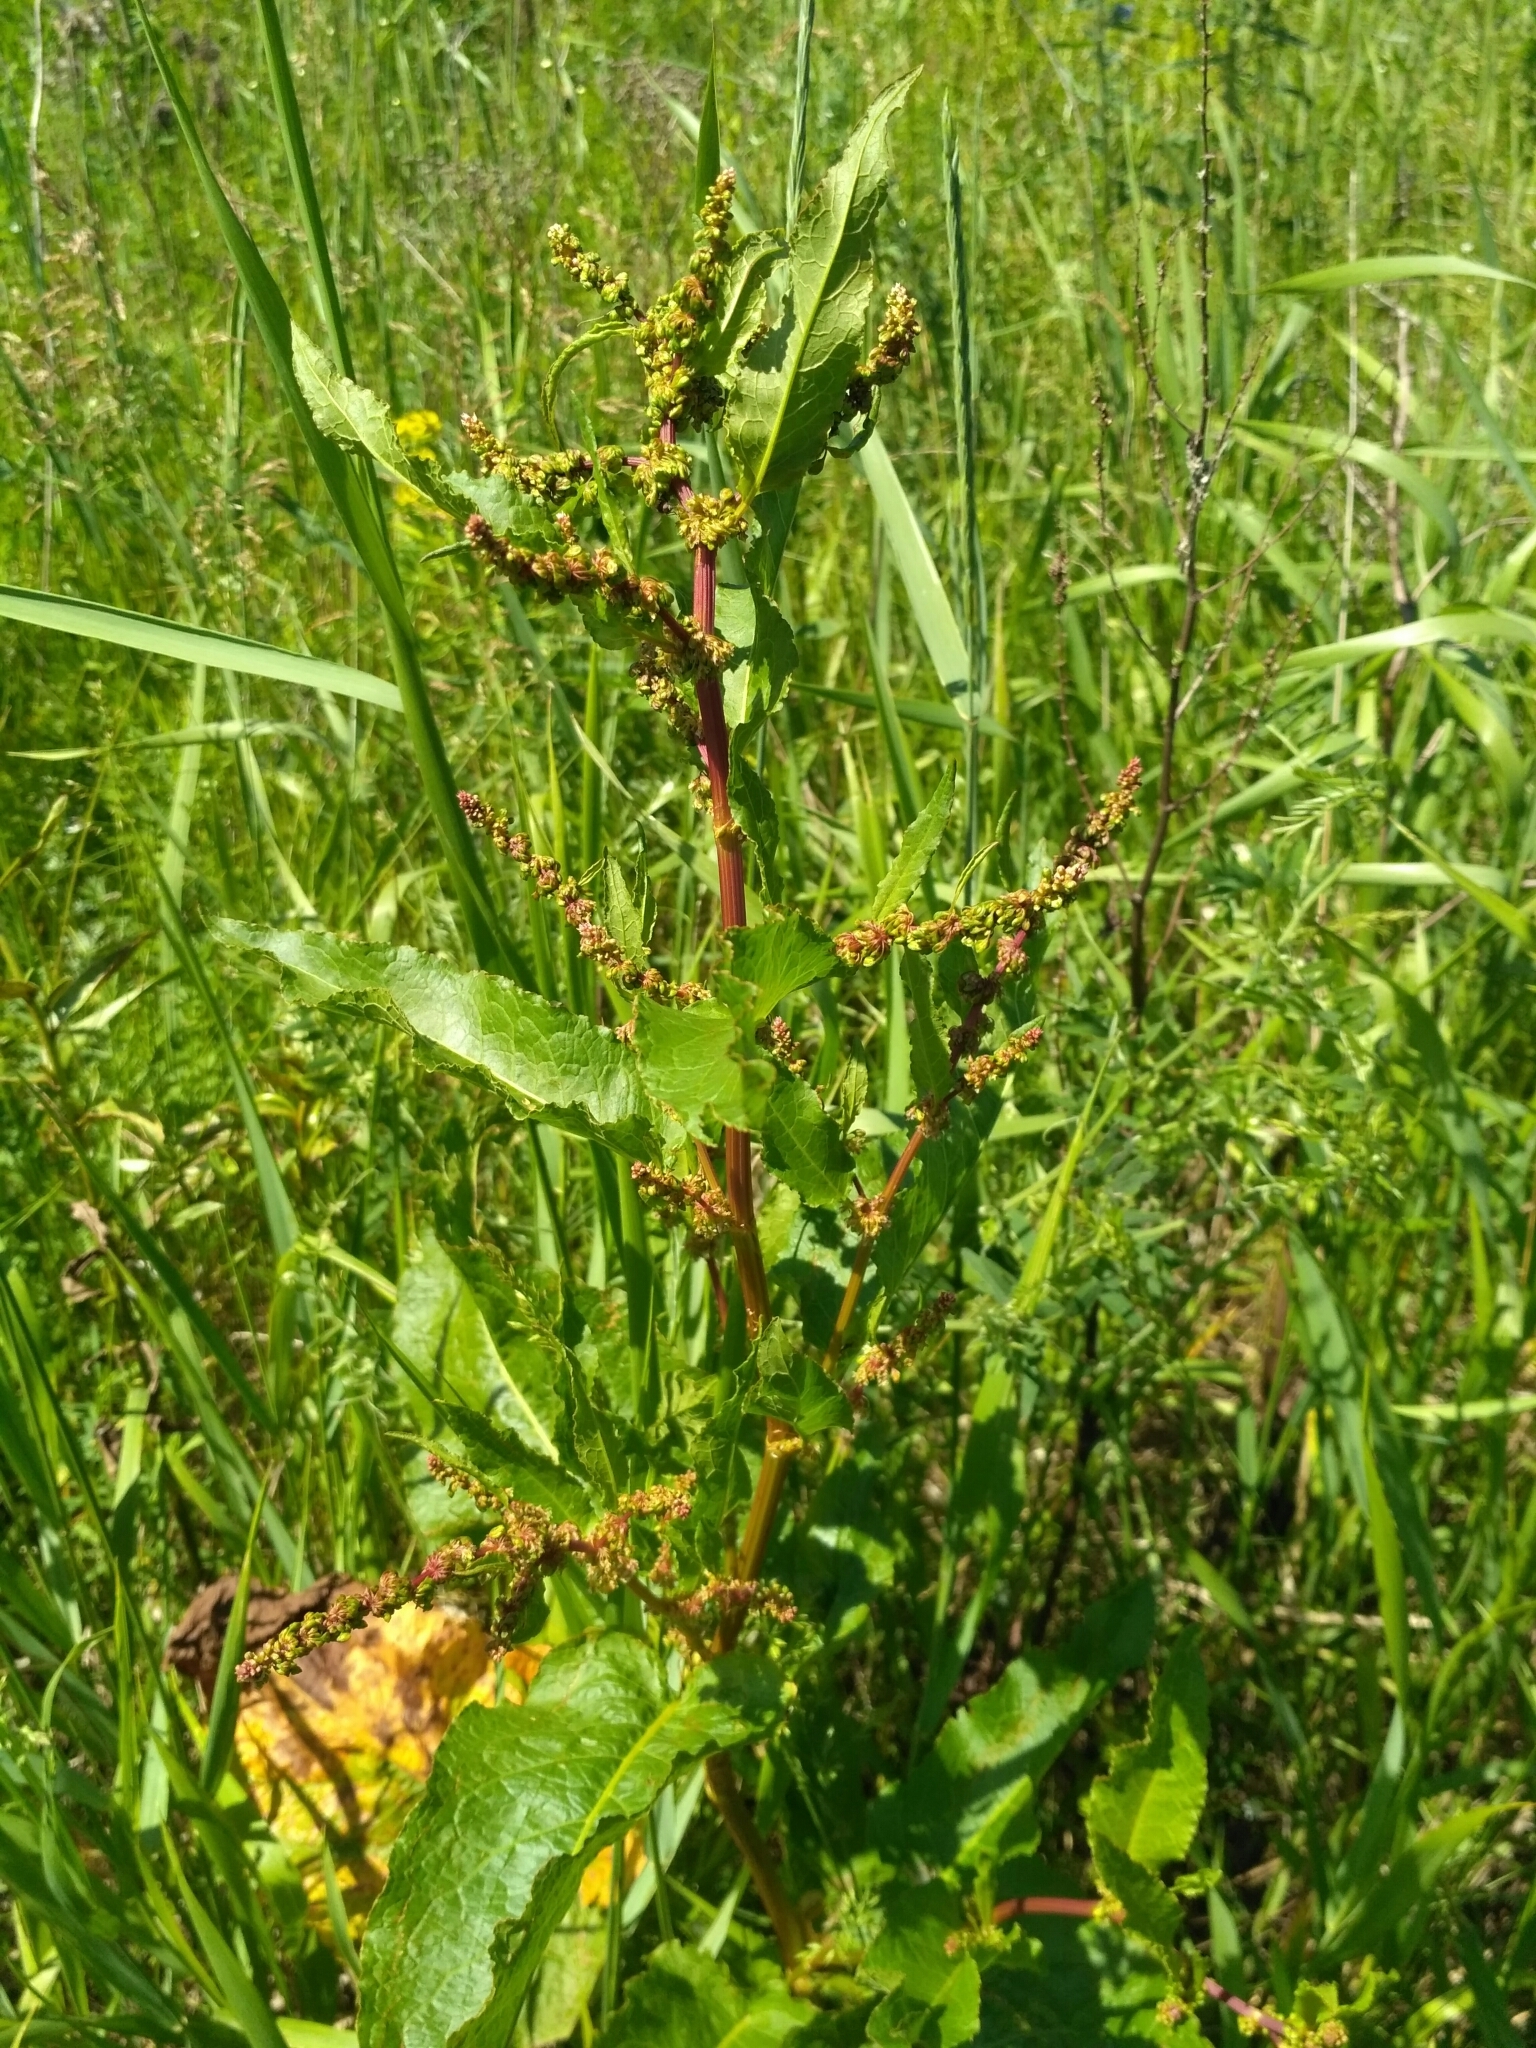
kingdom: Plantae
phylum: Tracheophyta
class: Magnoliopsida
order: Caryophyllales
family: Polygonaceae
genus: Rumex
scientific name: Rumex obtusifolius
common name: Bitter dock
